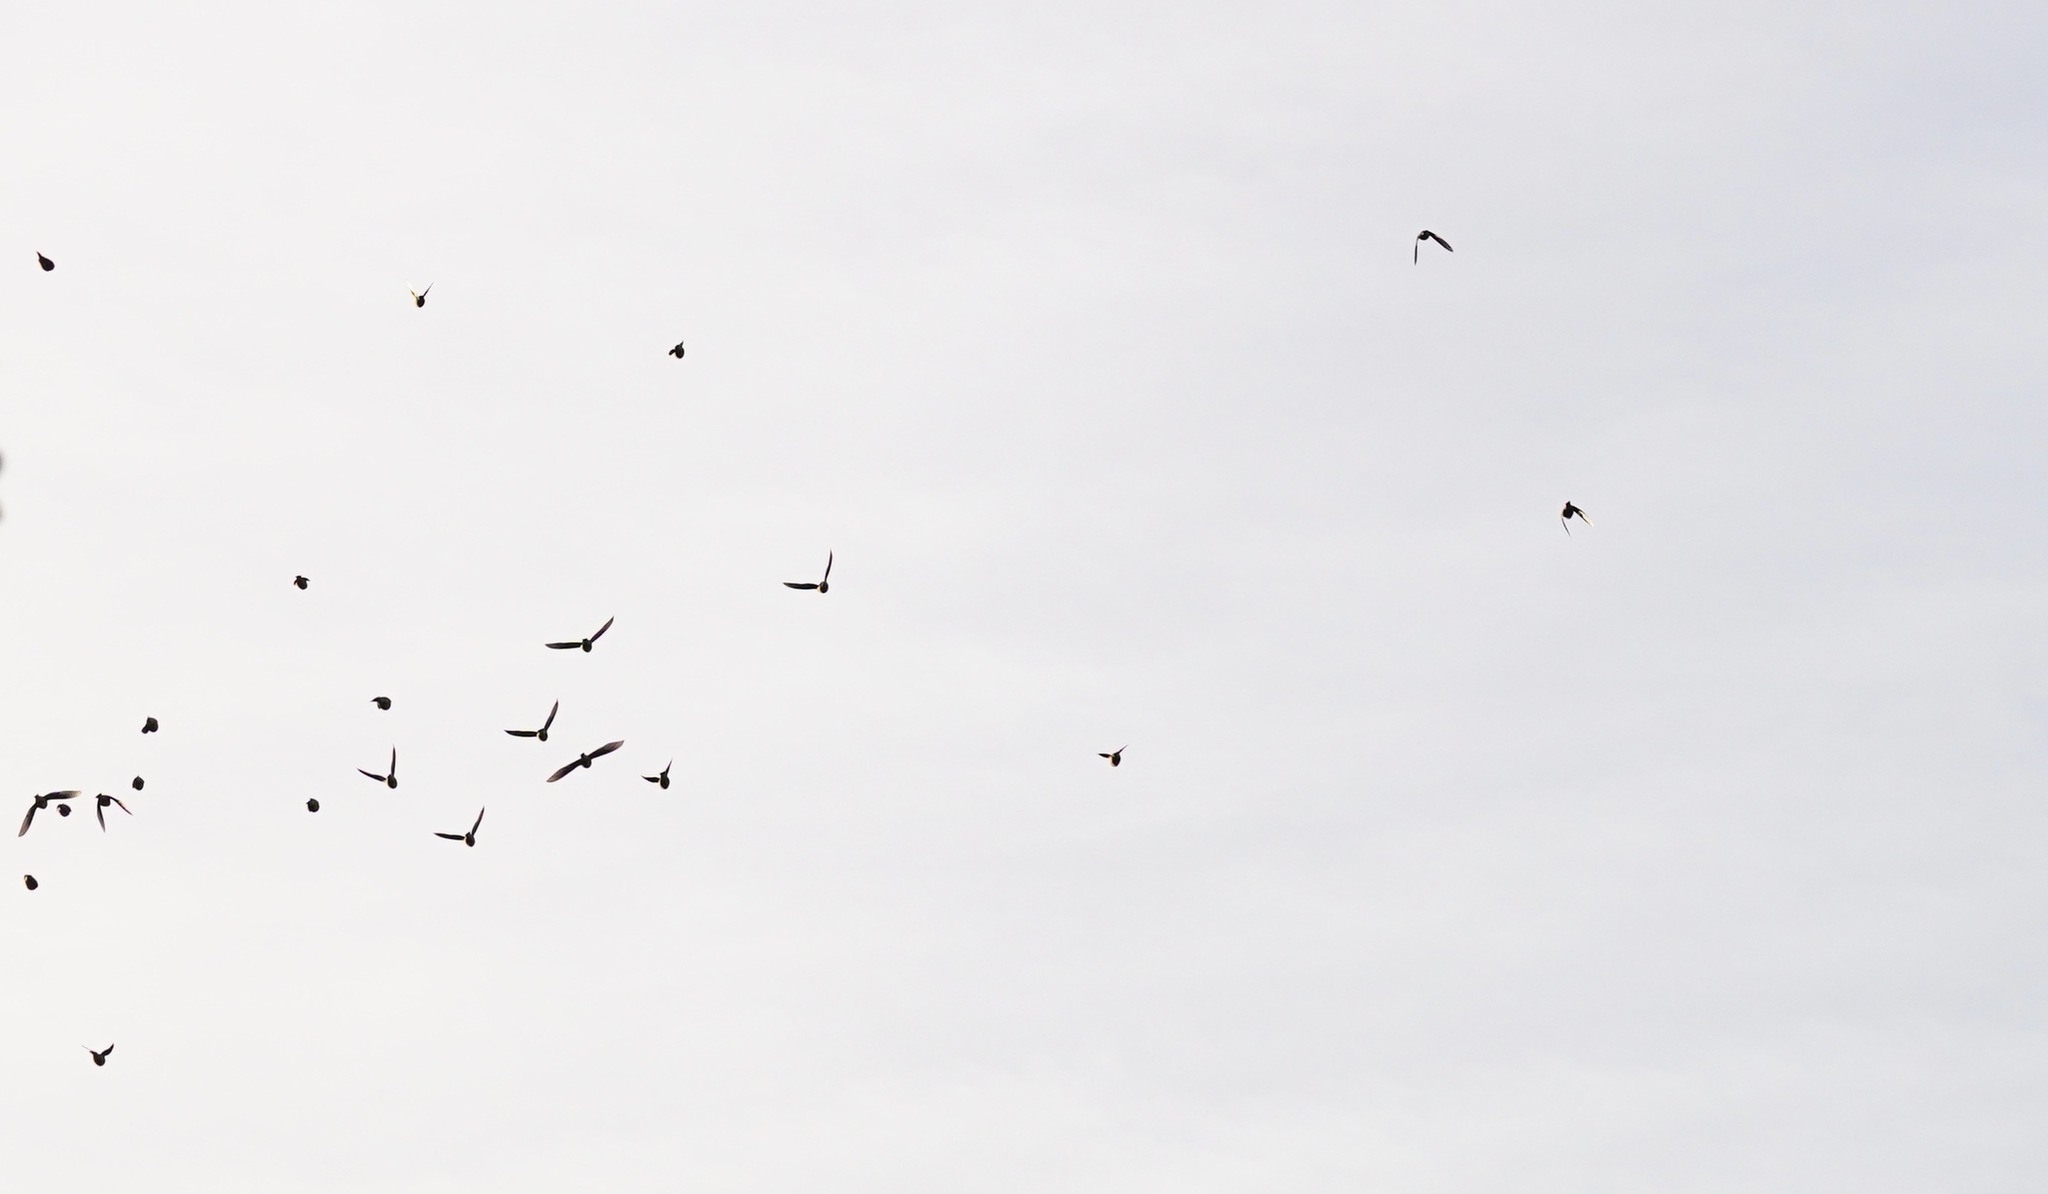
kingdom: Animalia
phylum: Chordata
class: Aves
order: Passeriformes
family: Bombycillidae
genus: Bombycilla
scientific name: Bombycilla cedrorum
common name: Cedar waxwing
